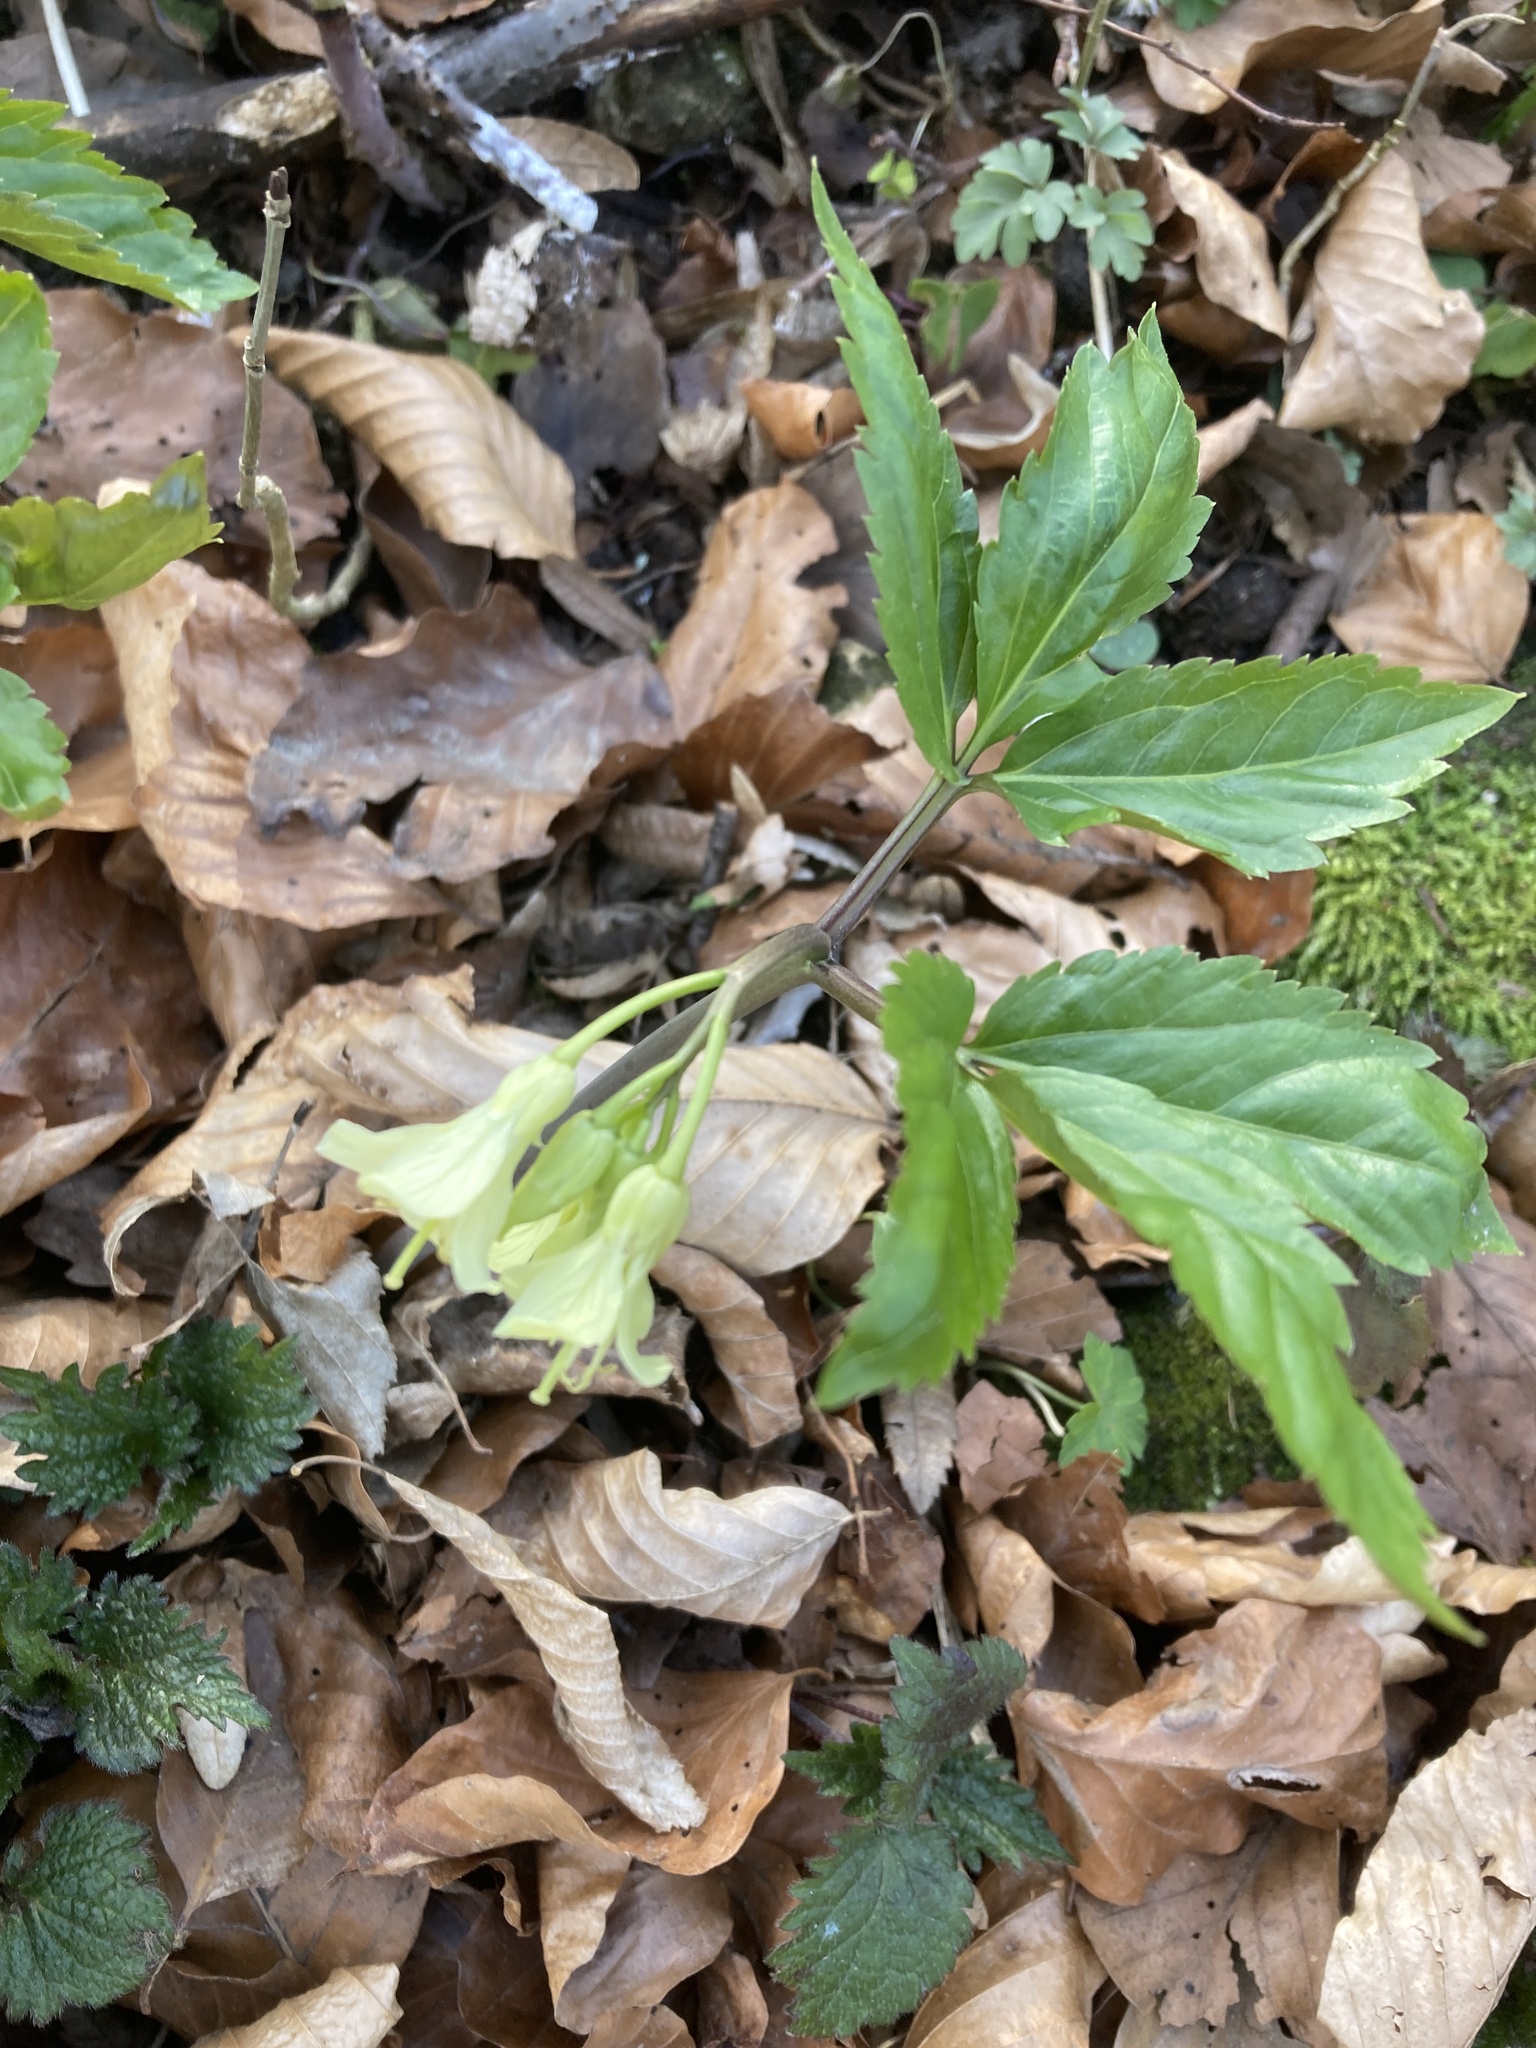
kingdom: Plantae
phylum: Tracheophyta
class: Magnoliopsida
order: Brassicales
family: Brassicaceae
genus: Cardamine
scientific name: Cardamine enneaphyllos
